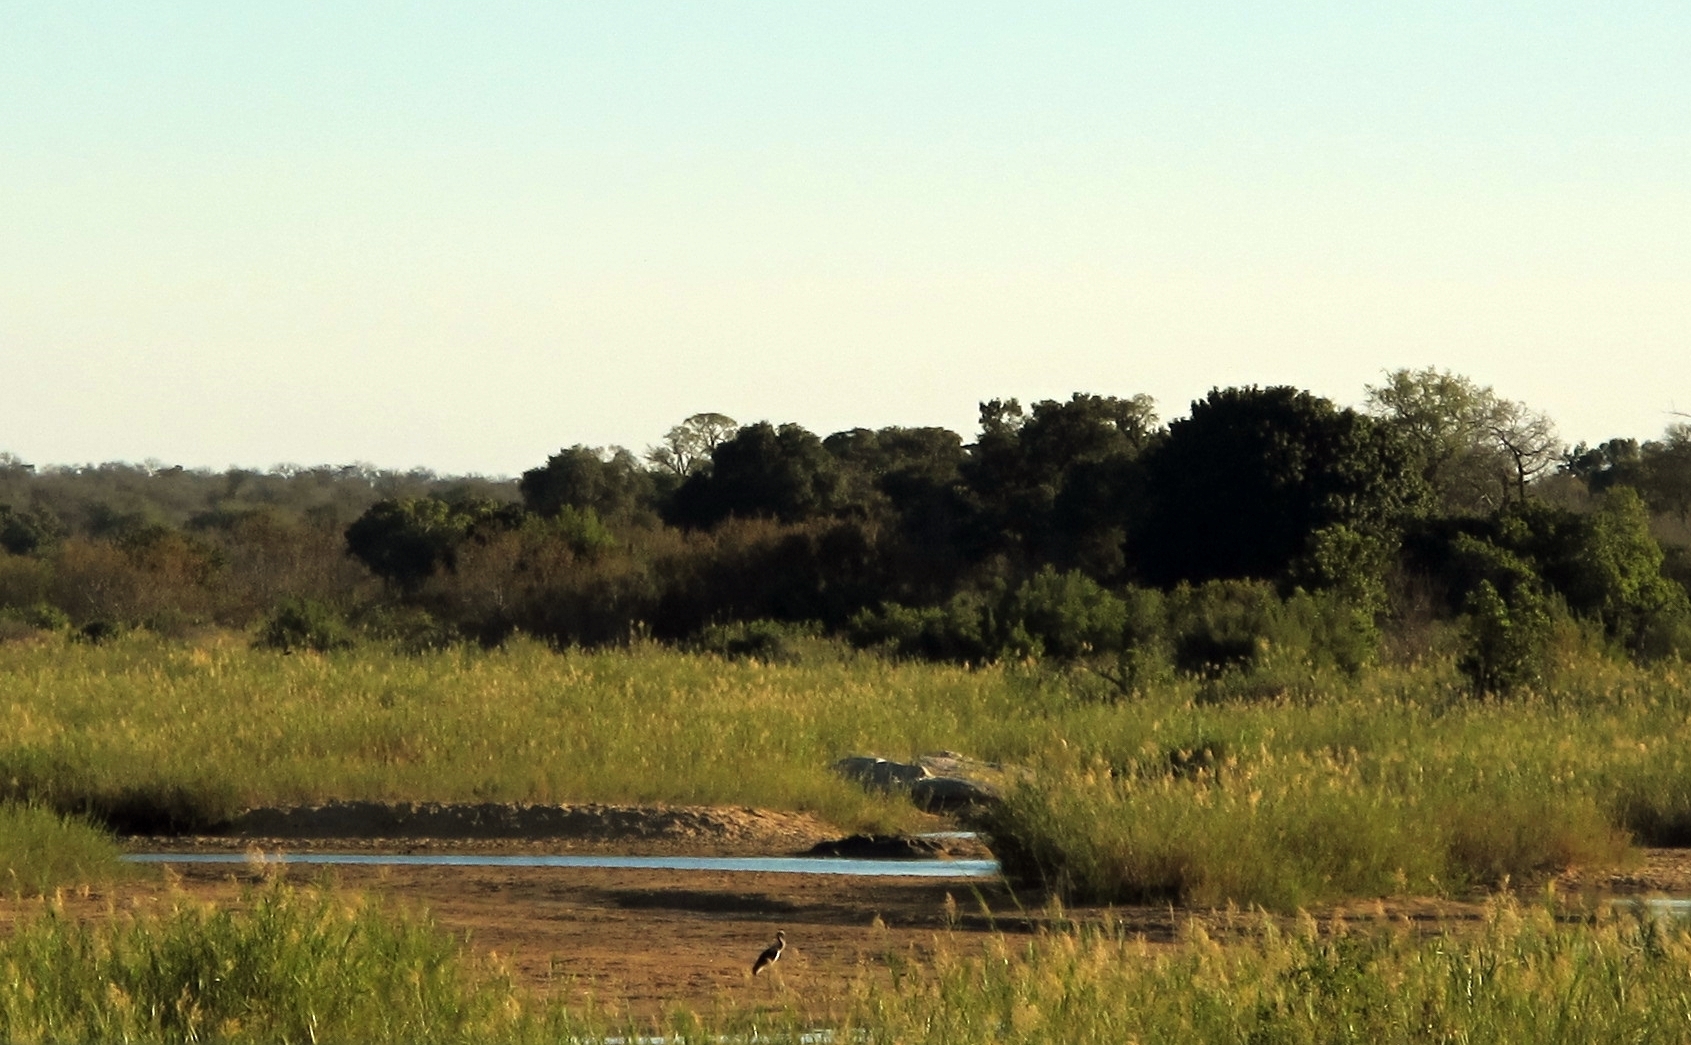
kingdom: Animalia
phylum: Chordata
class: Aves
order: Ciconiiformes
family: Ciconiidae
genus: Ephippiorhynchus
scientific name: Ephippiorhynchus senegalensis
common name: Saddle-billed stork
